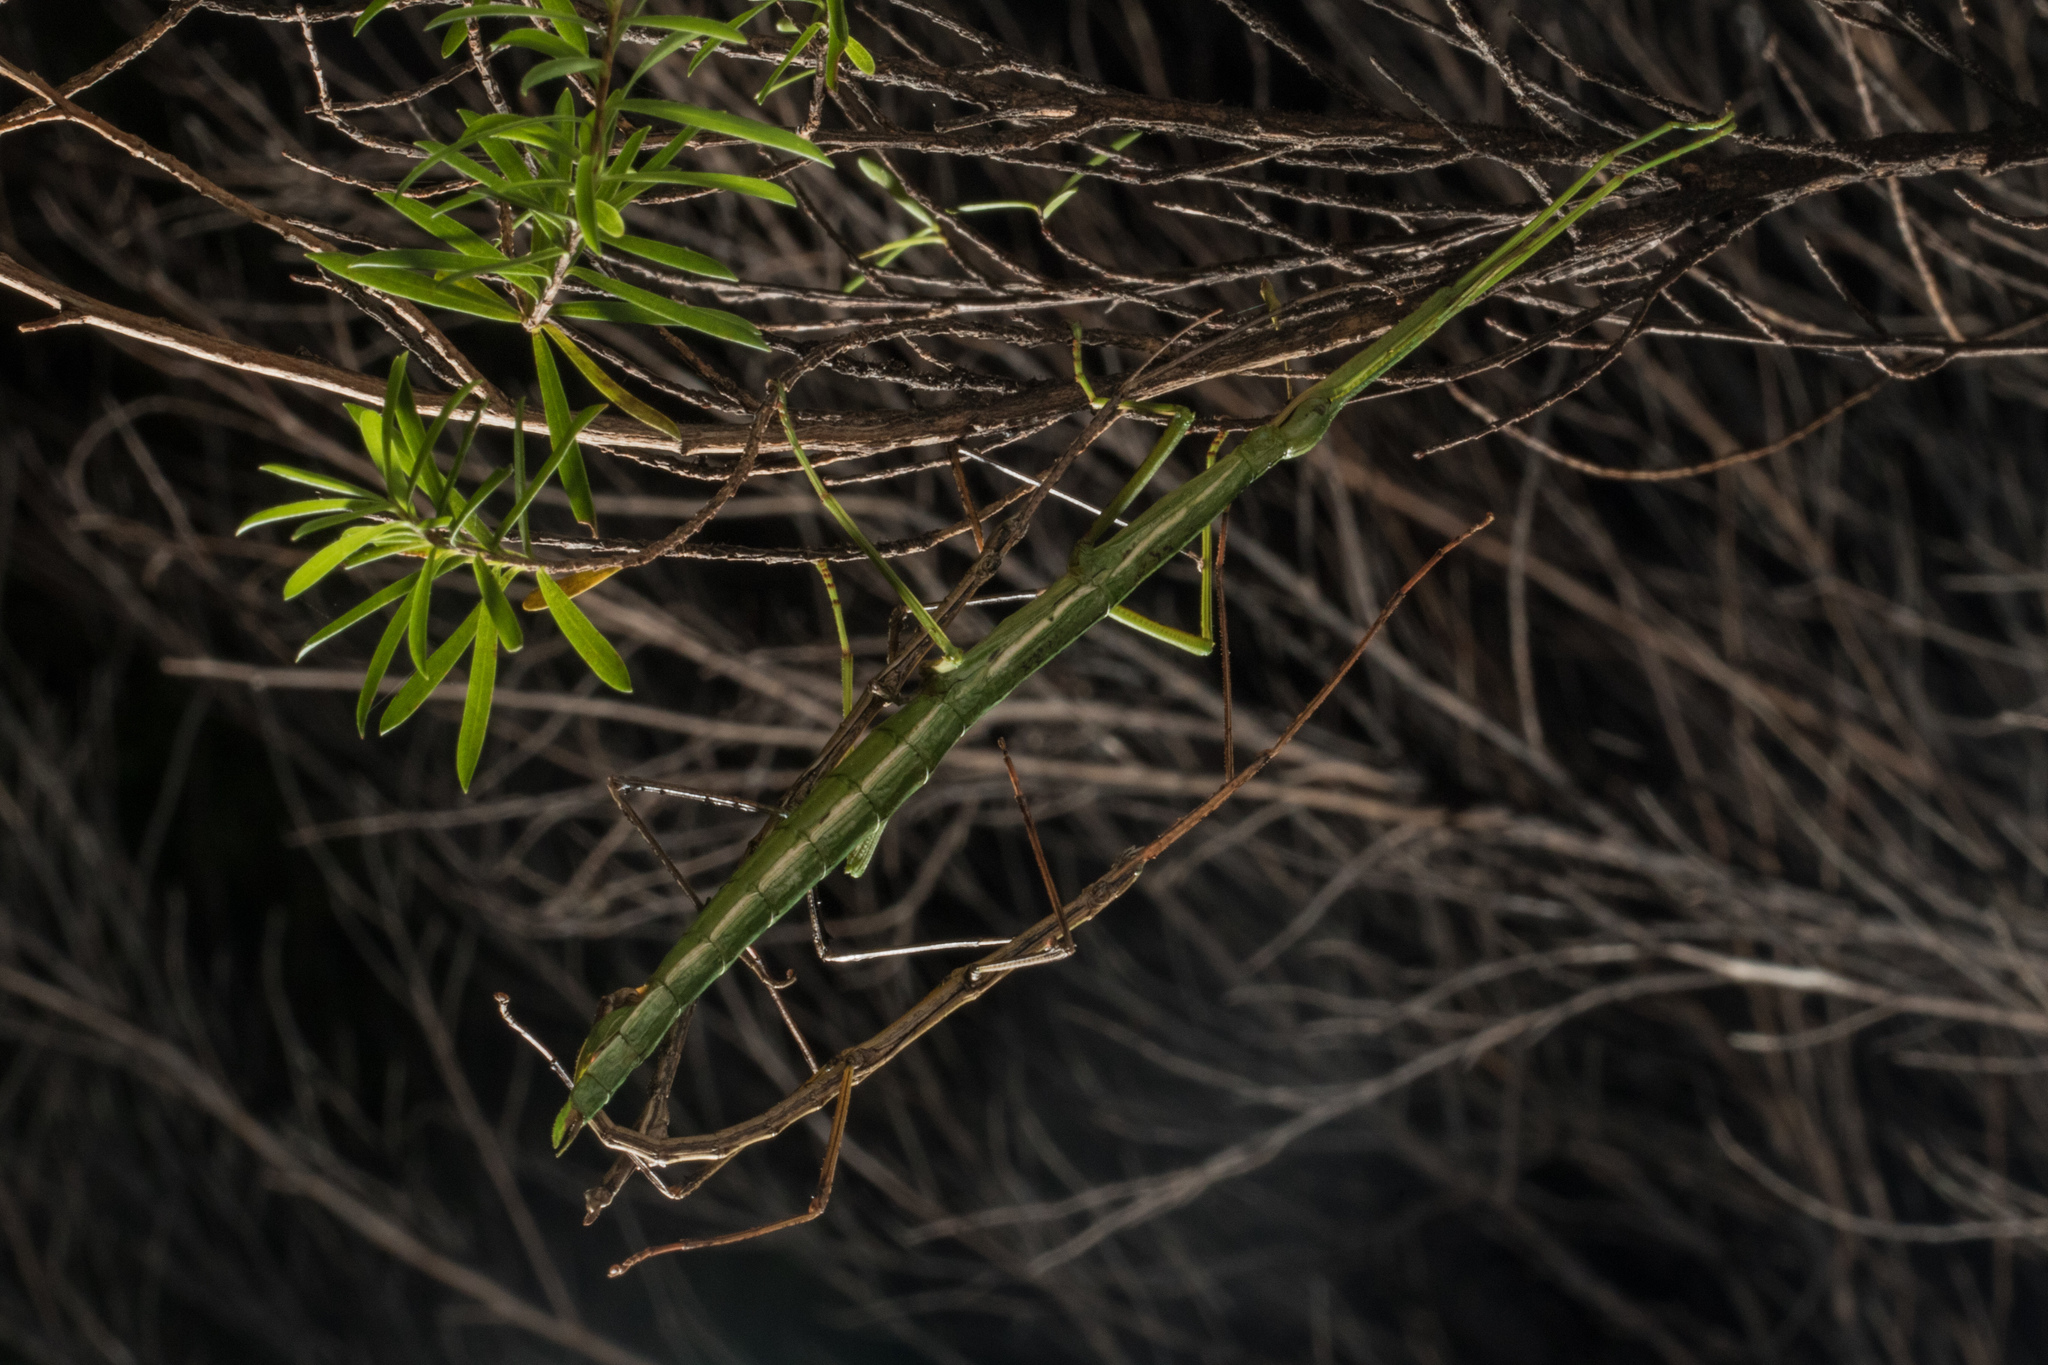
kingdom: Animalia
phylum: Arthropoda
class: Insecta
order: Phasmida
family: Phasmatidae
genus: Clitarchus
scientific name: Clitarchus hookeri
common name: Smooth stick insect
